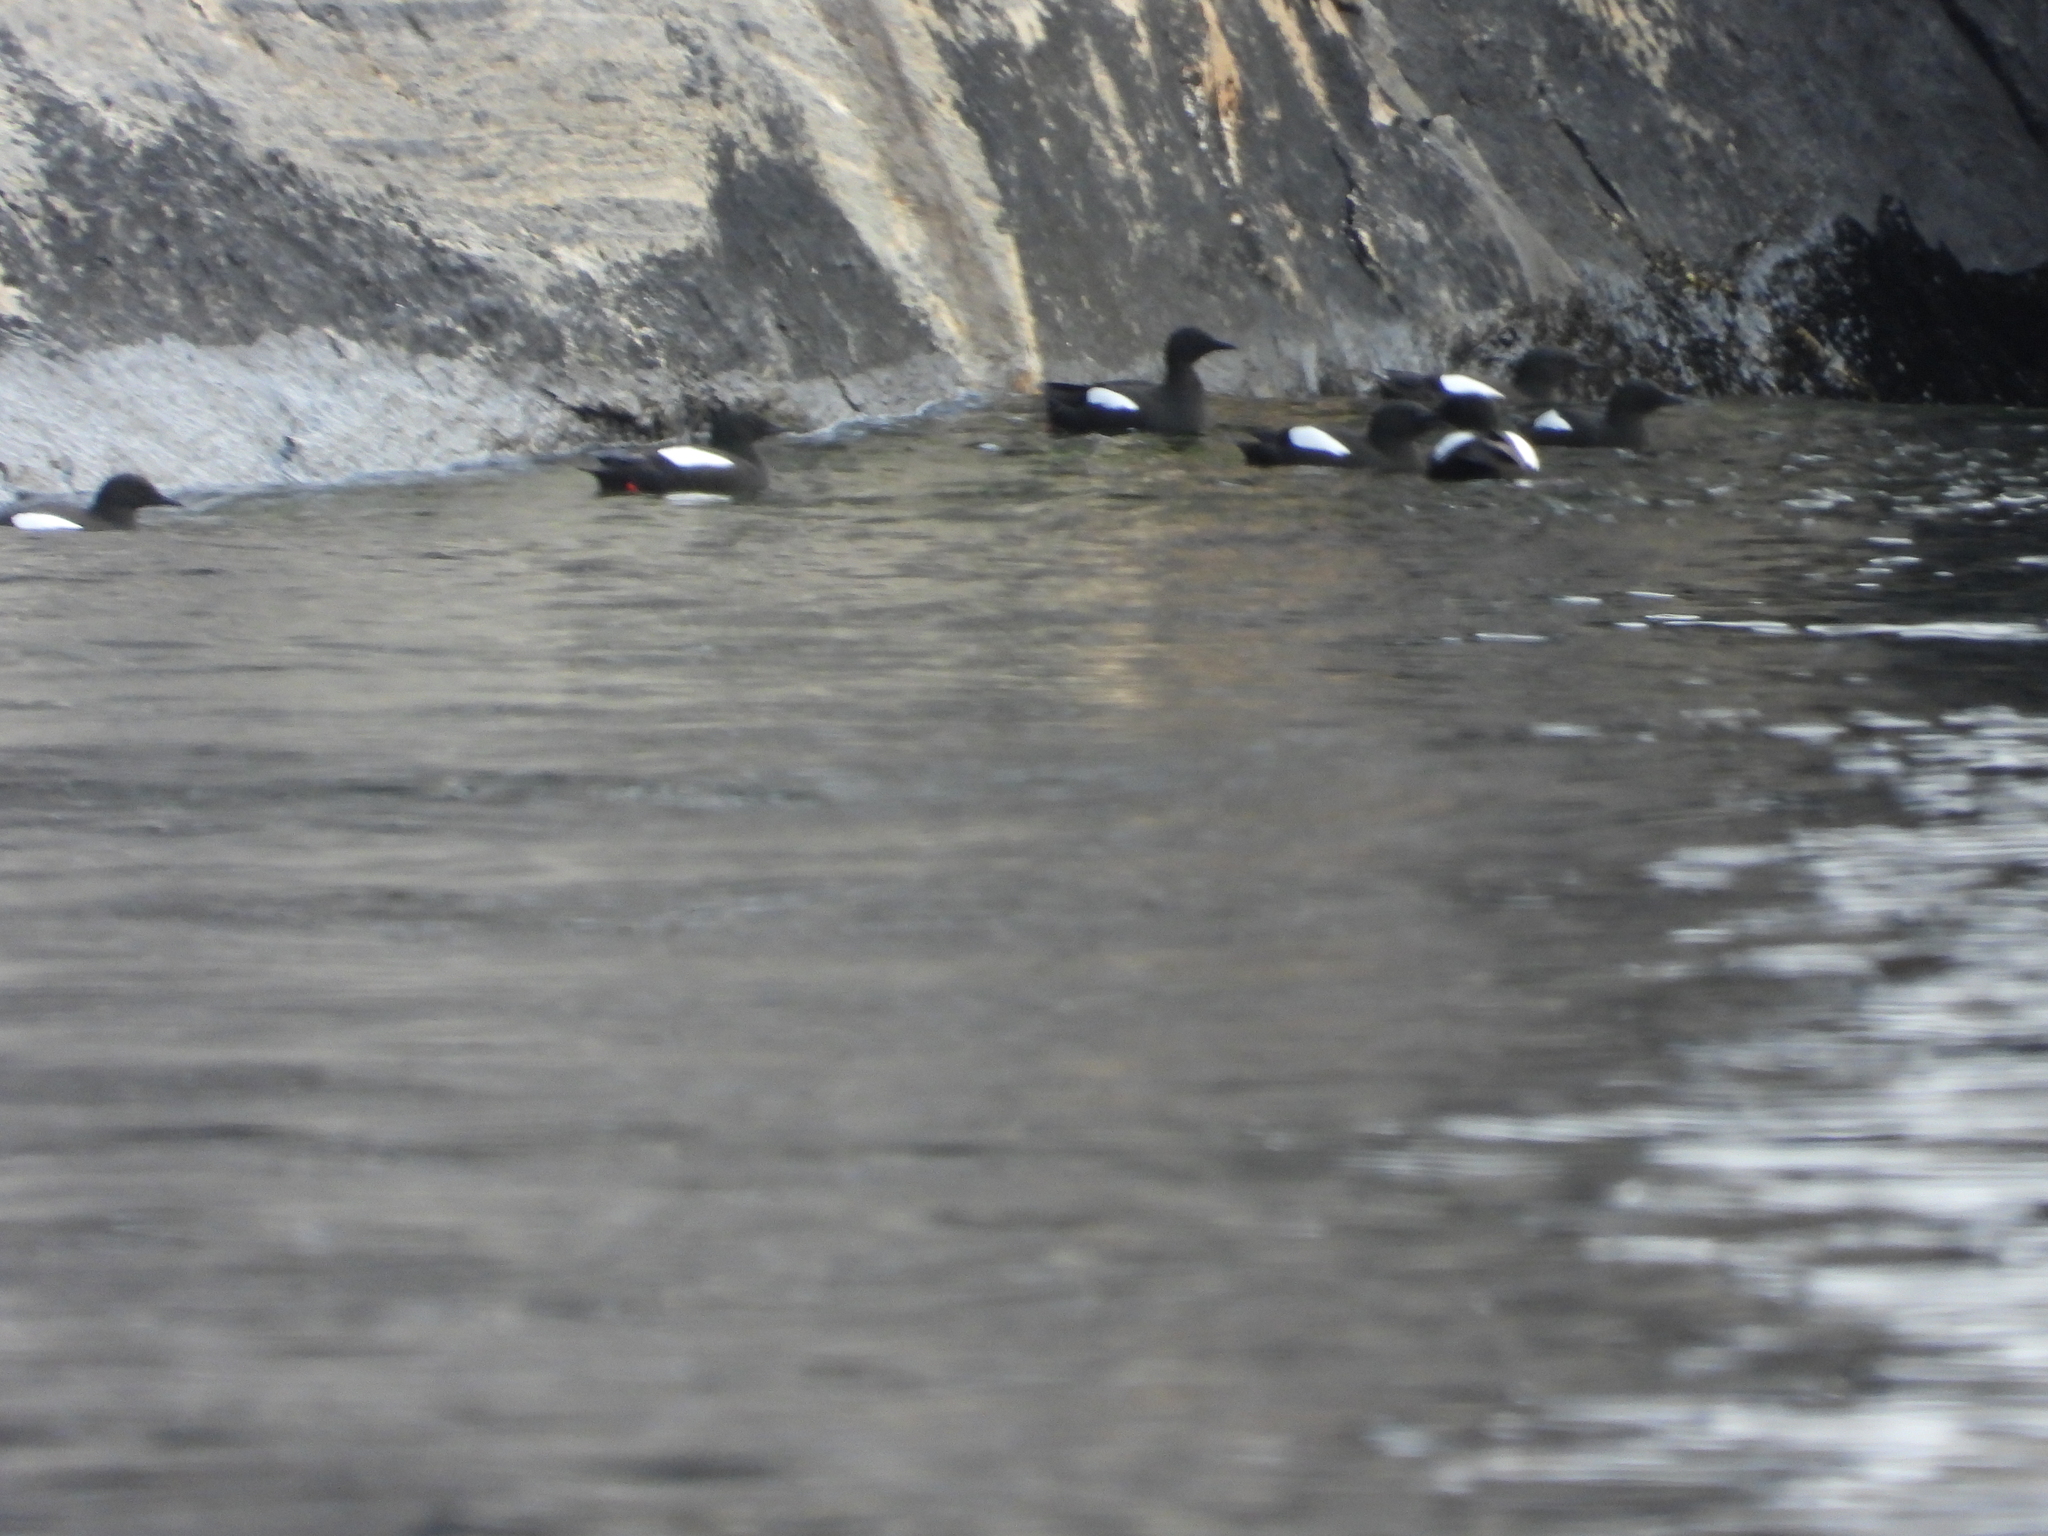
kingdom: Animalia
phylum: Chordata
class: Aves
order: Charadriiformes
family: Alcidae
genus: Cepphus
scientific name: Cepphus grylle
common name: Black guillemot
